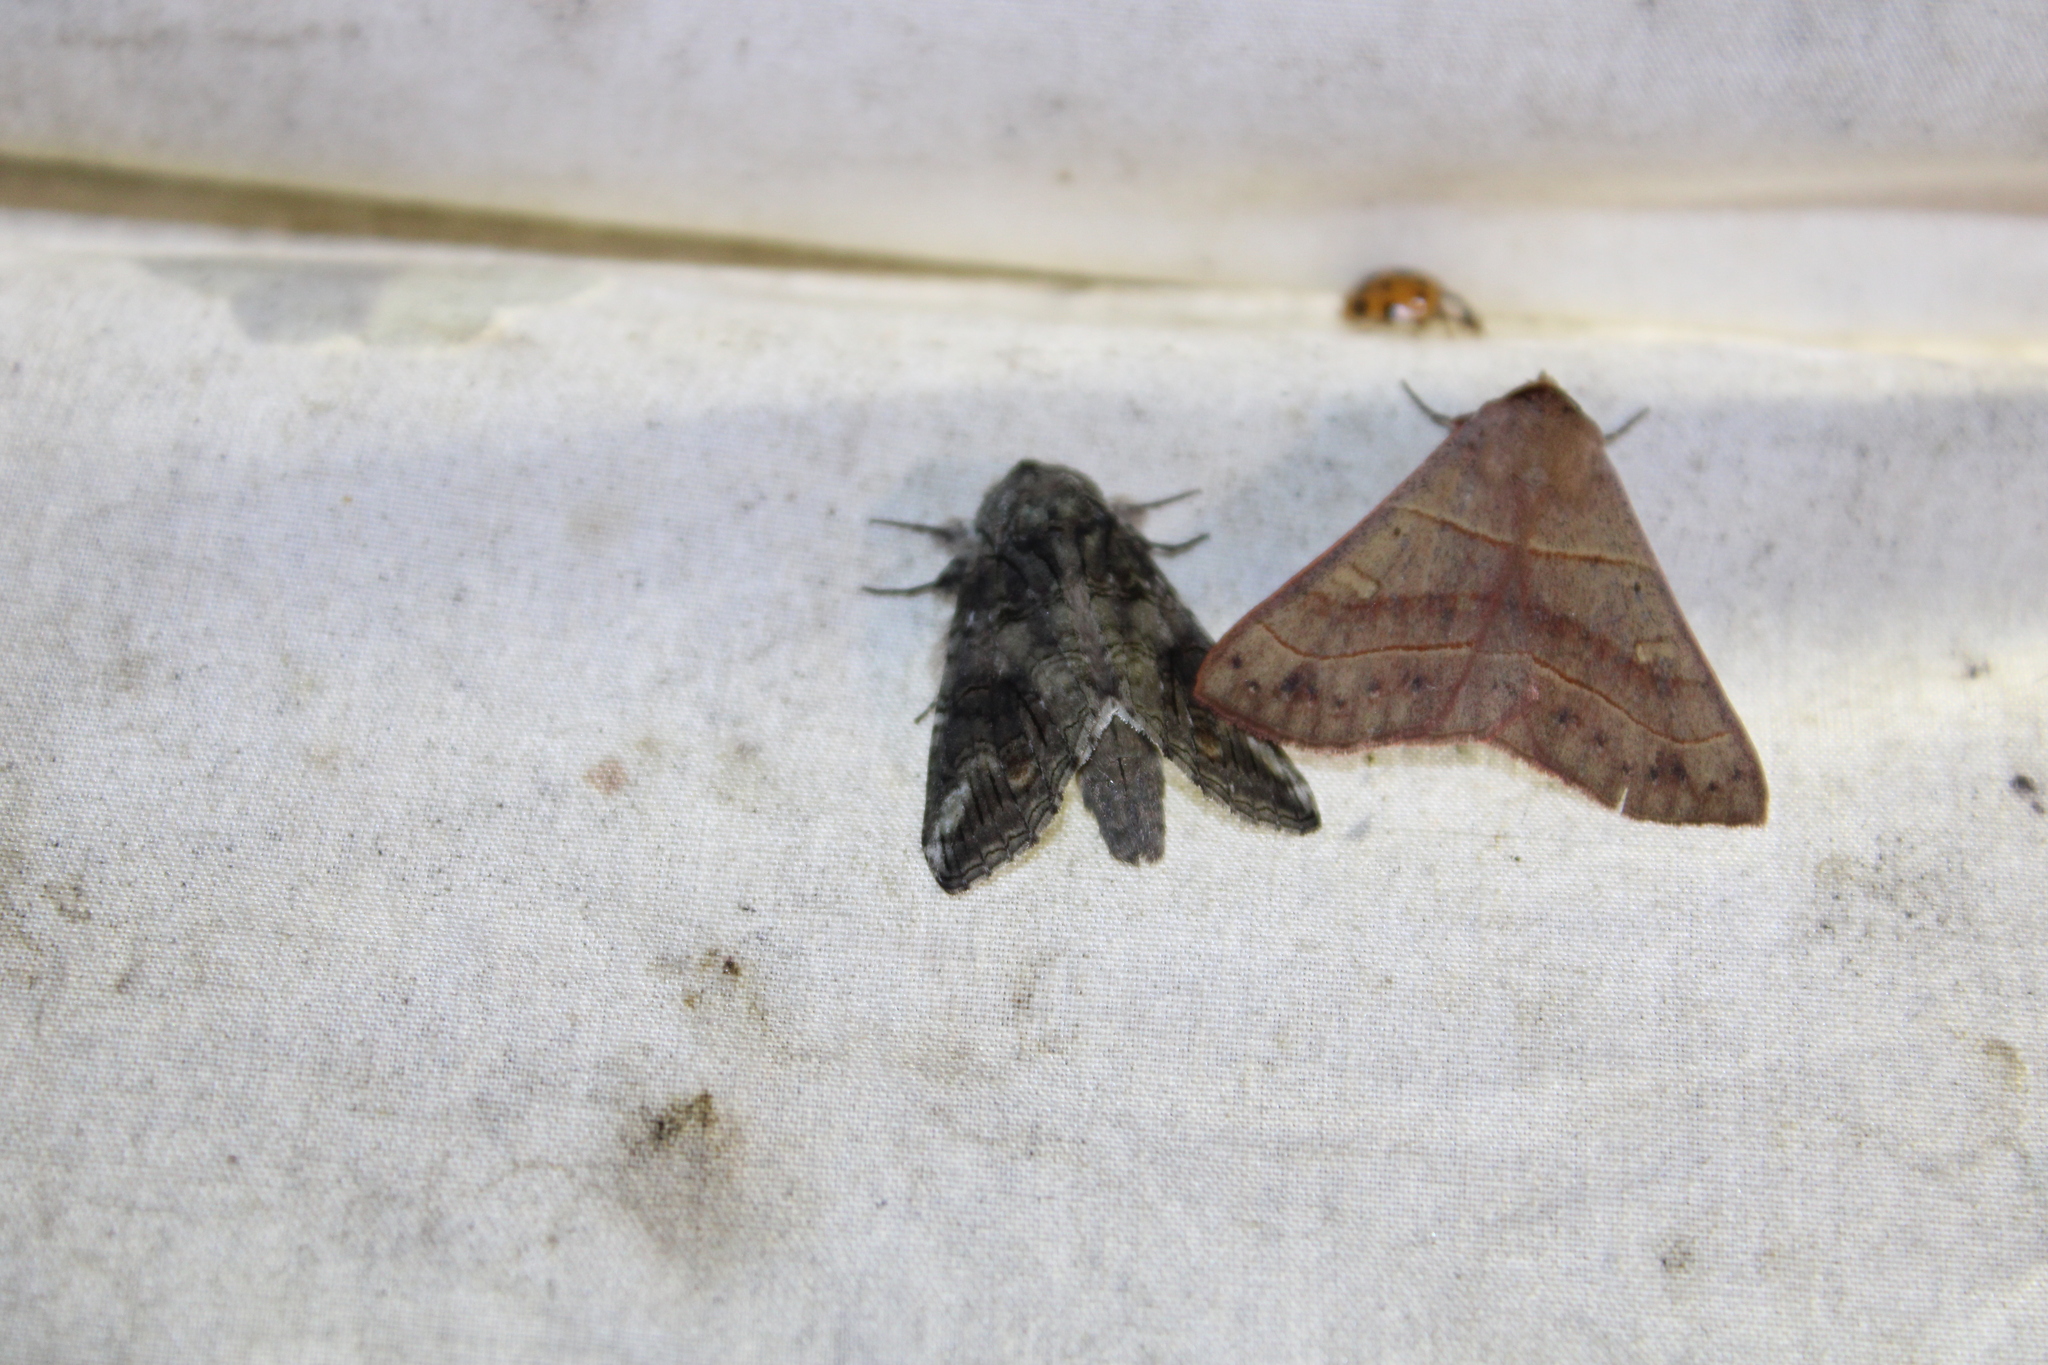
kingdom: Animalia
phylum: Arthropoda
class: Insecta
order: Lepidoptera
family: Notodontidae
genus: Heterocampa
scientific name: Heterocampa obliqua
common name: Oblique heterocampa
